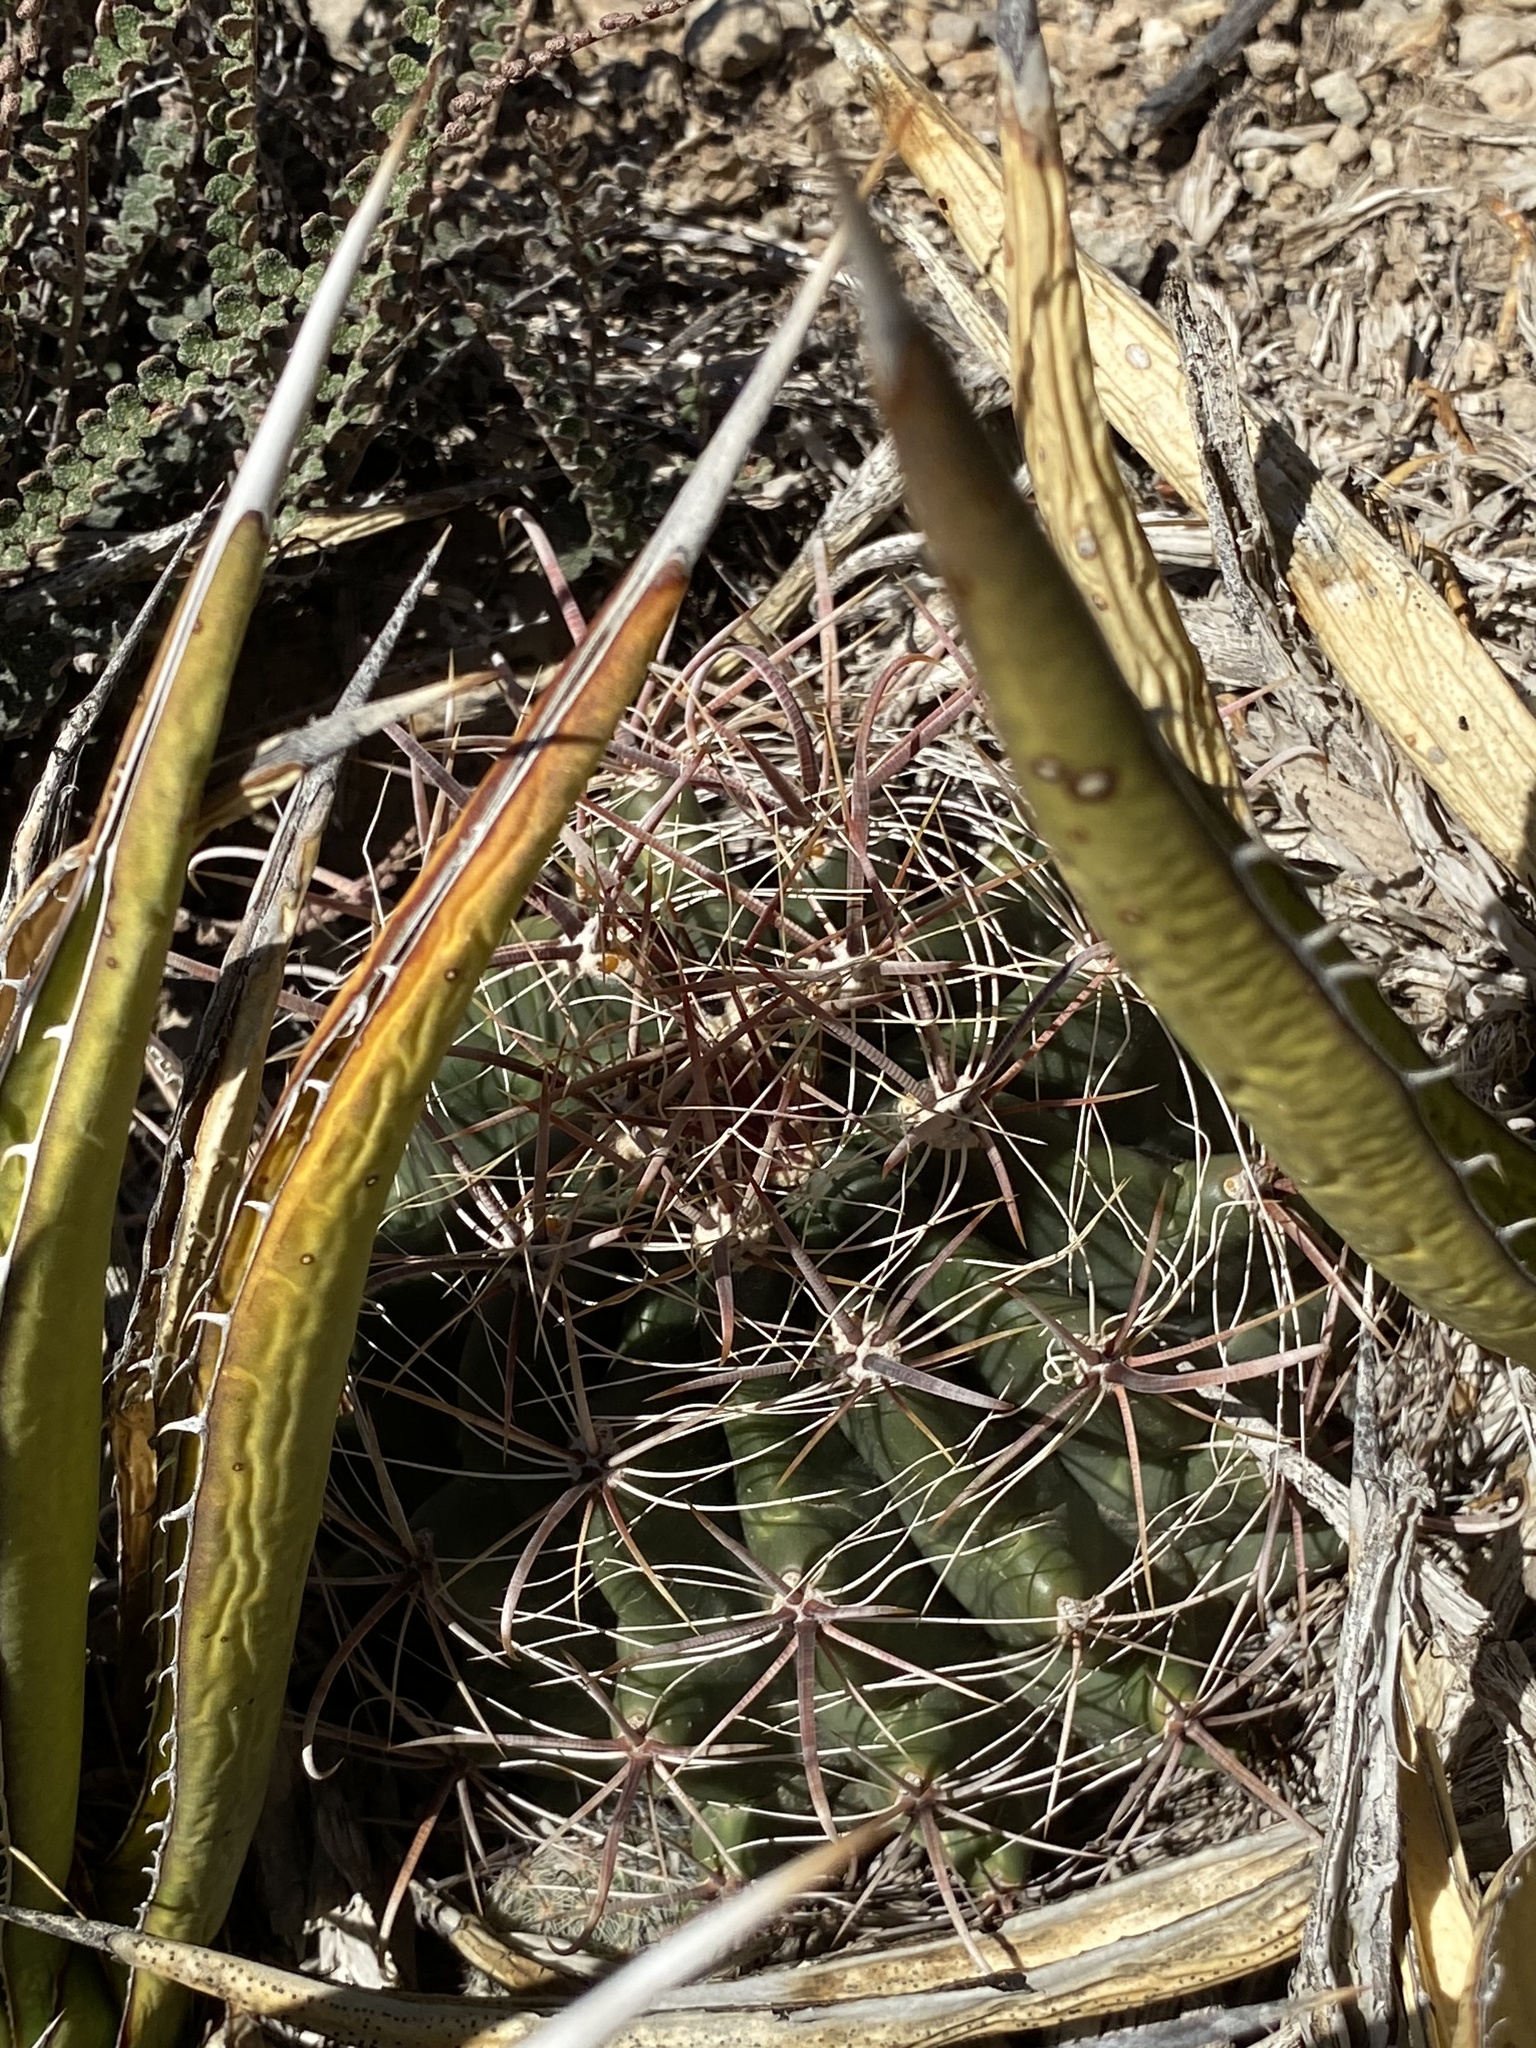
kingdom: Plantae
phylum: Tracheophyta
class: Magnoliopsida
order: Caryophyllales
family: Cactaceae
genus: Ferocactus
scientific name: Ferocactus wislizeni
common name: Candy barrel cactus
